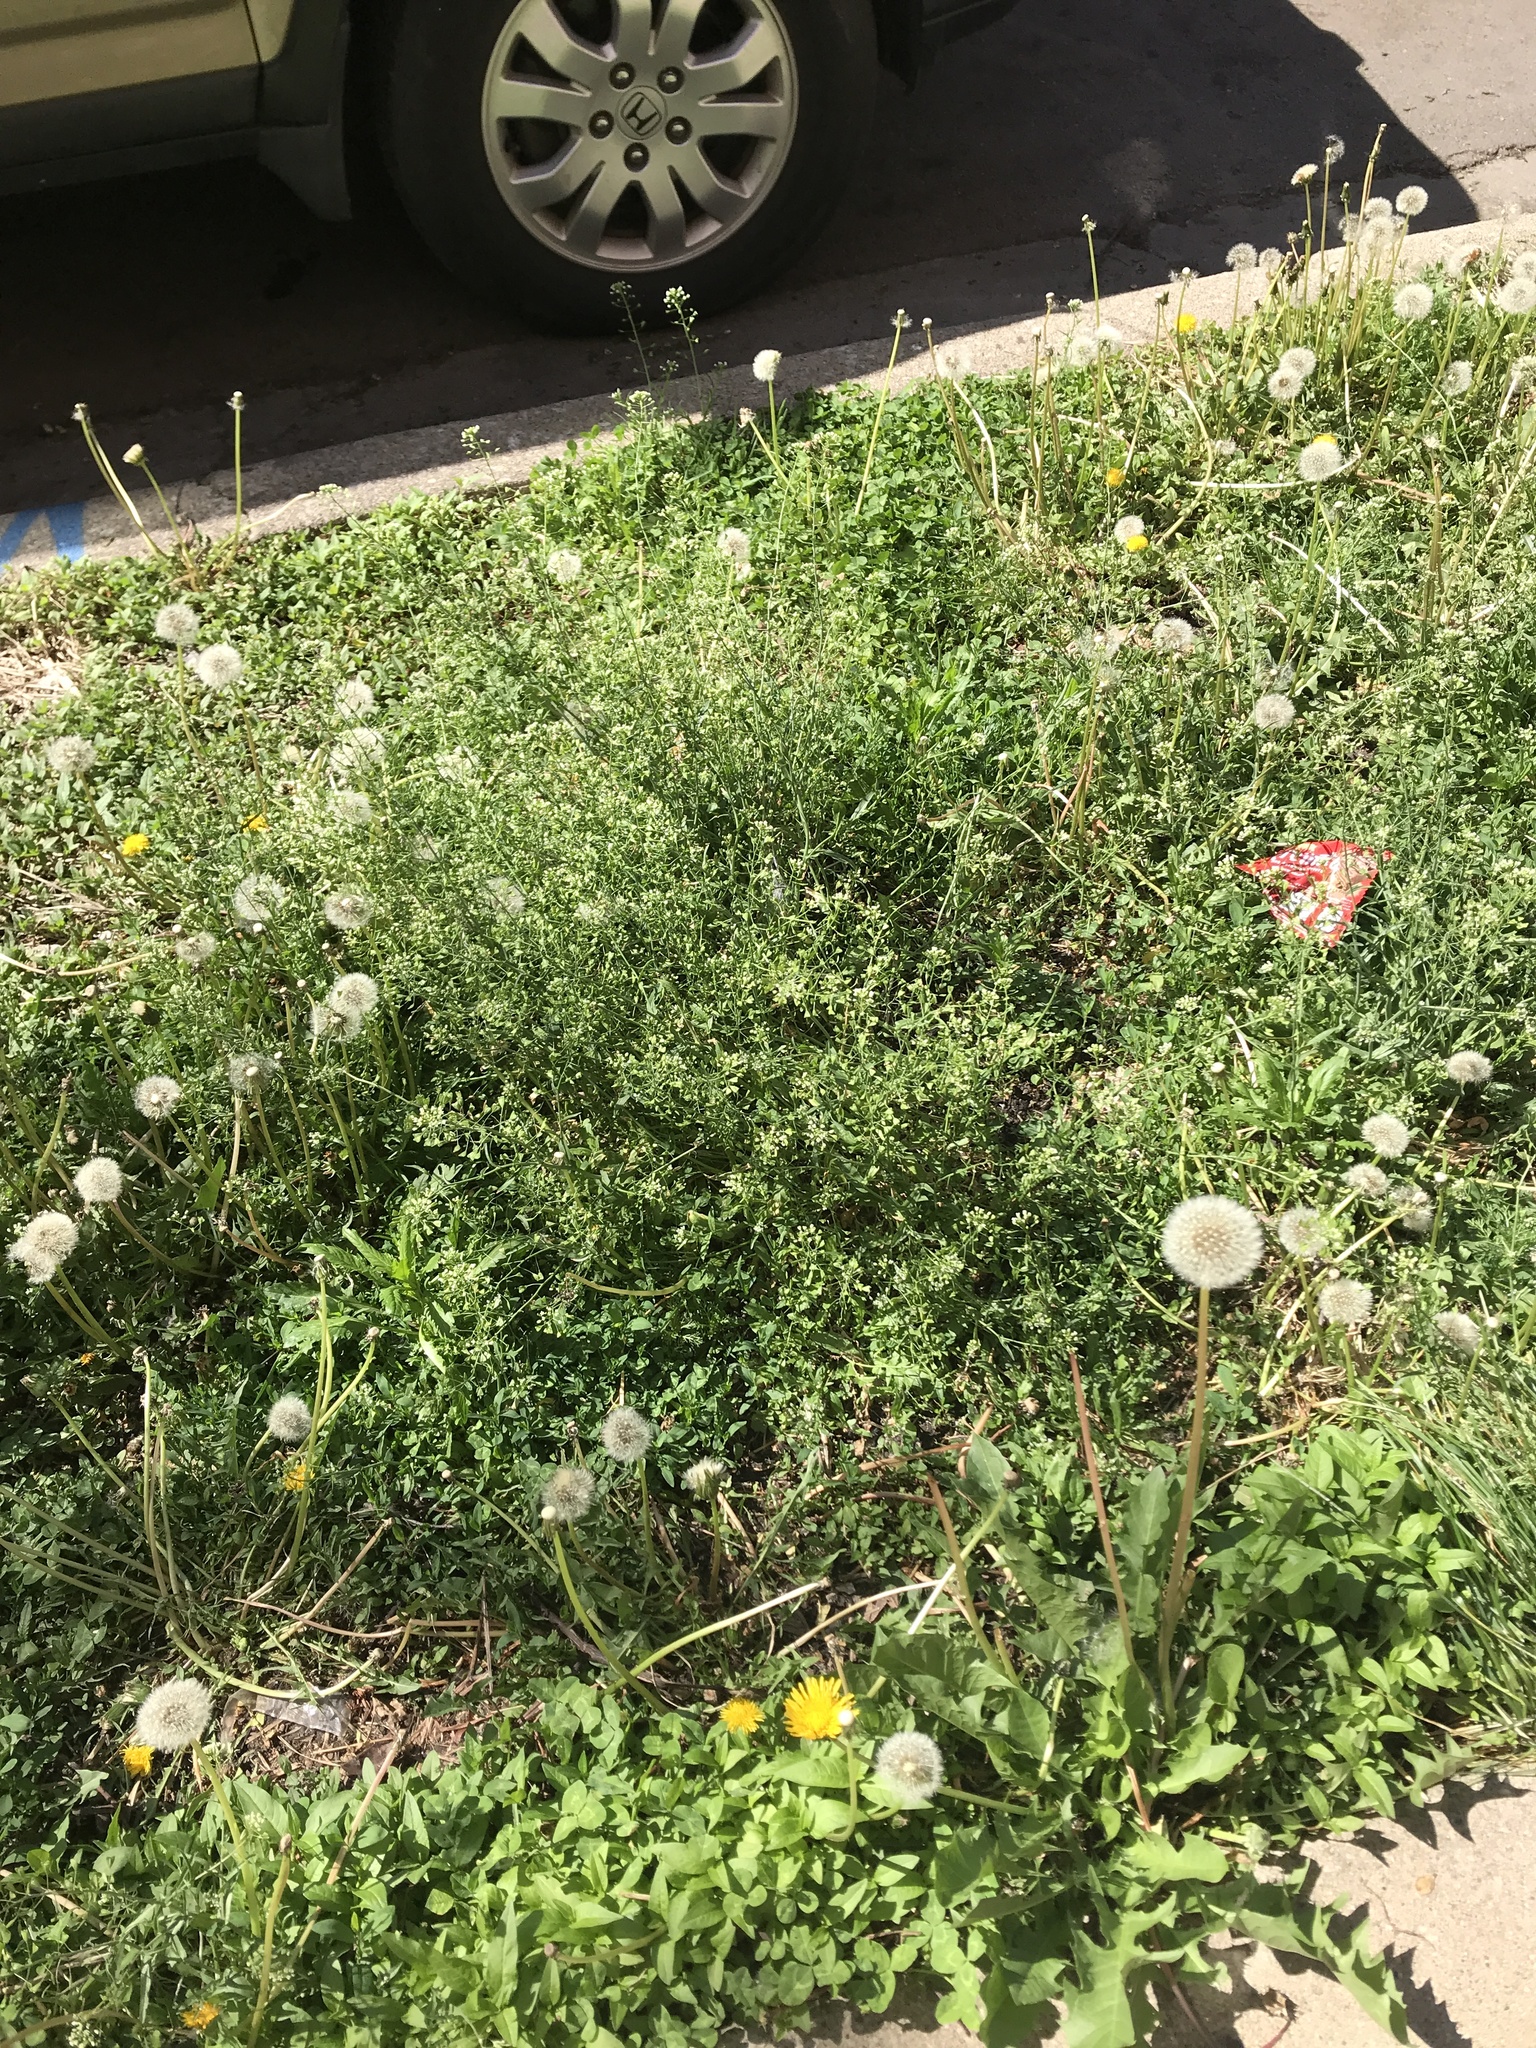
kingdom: Plantae
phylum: Tracheophyta
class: Magnoliopsida
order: Brassicales
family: Brassicaceae
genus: Capsella
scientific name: Capsella bursa-pastoris
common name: Shepherd's purse
